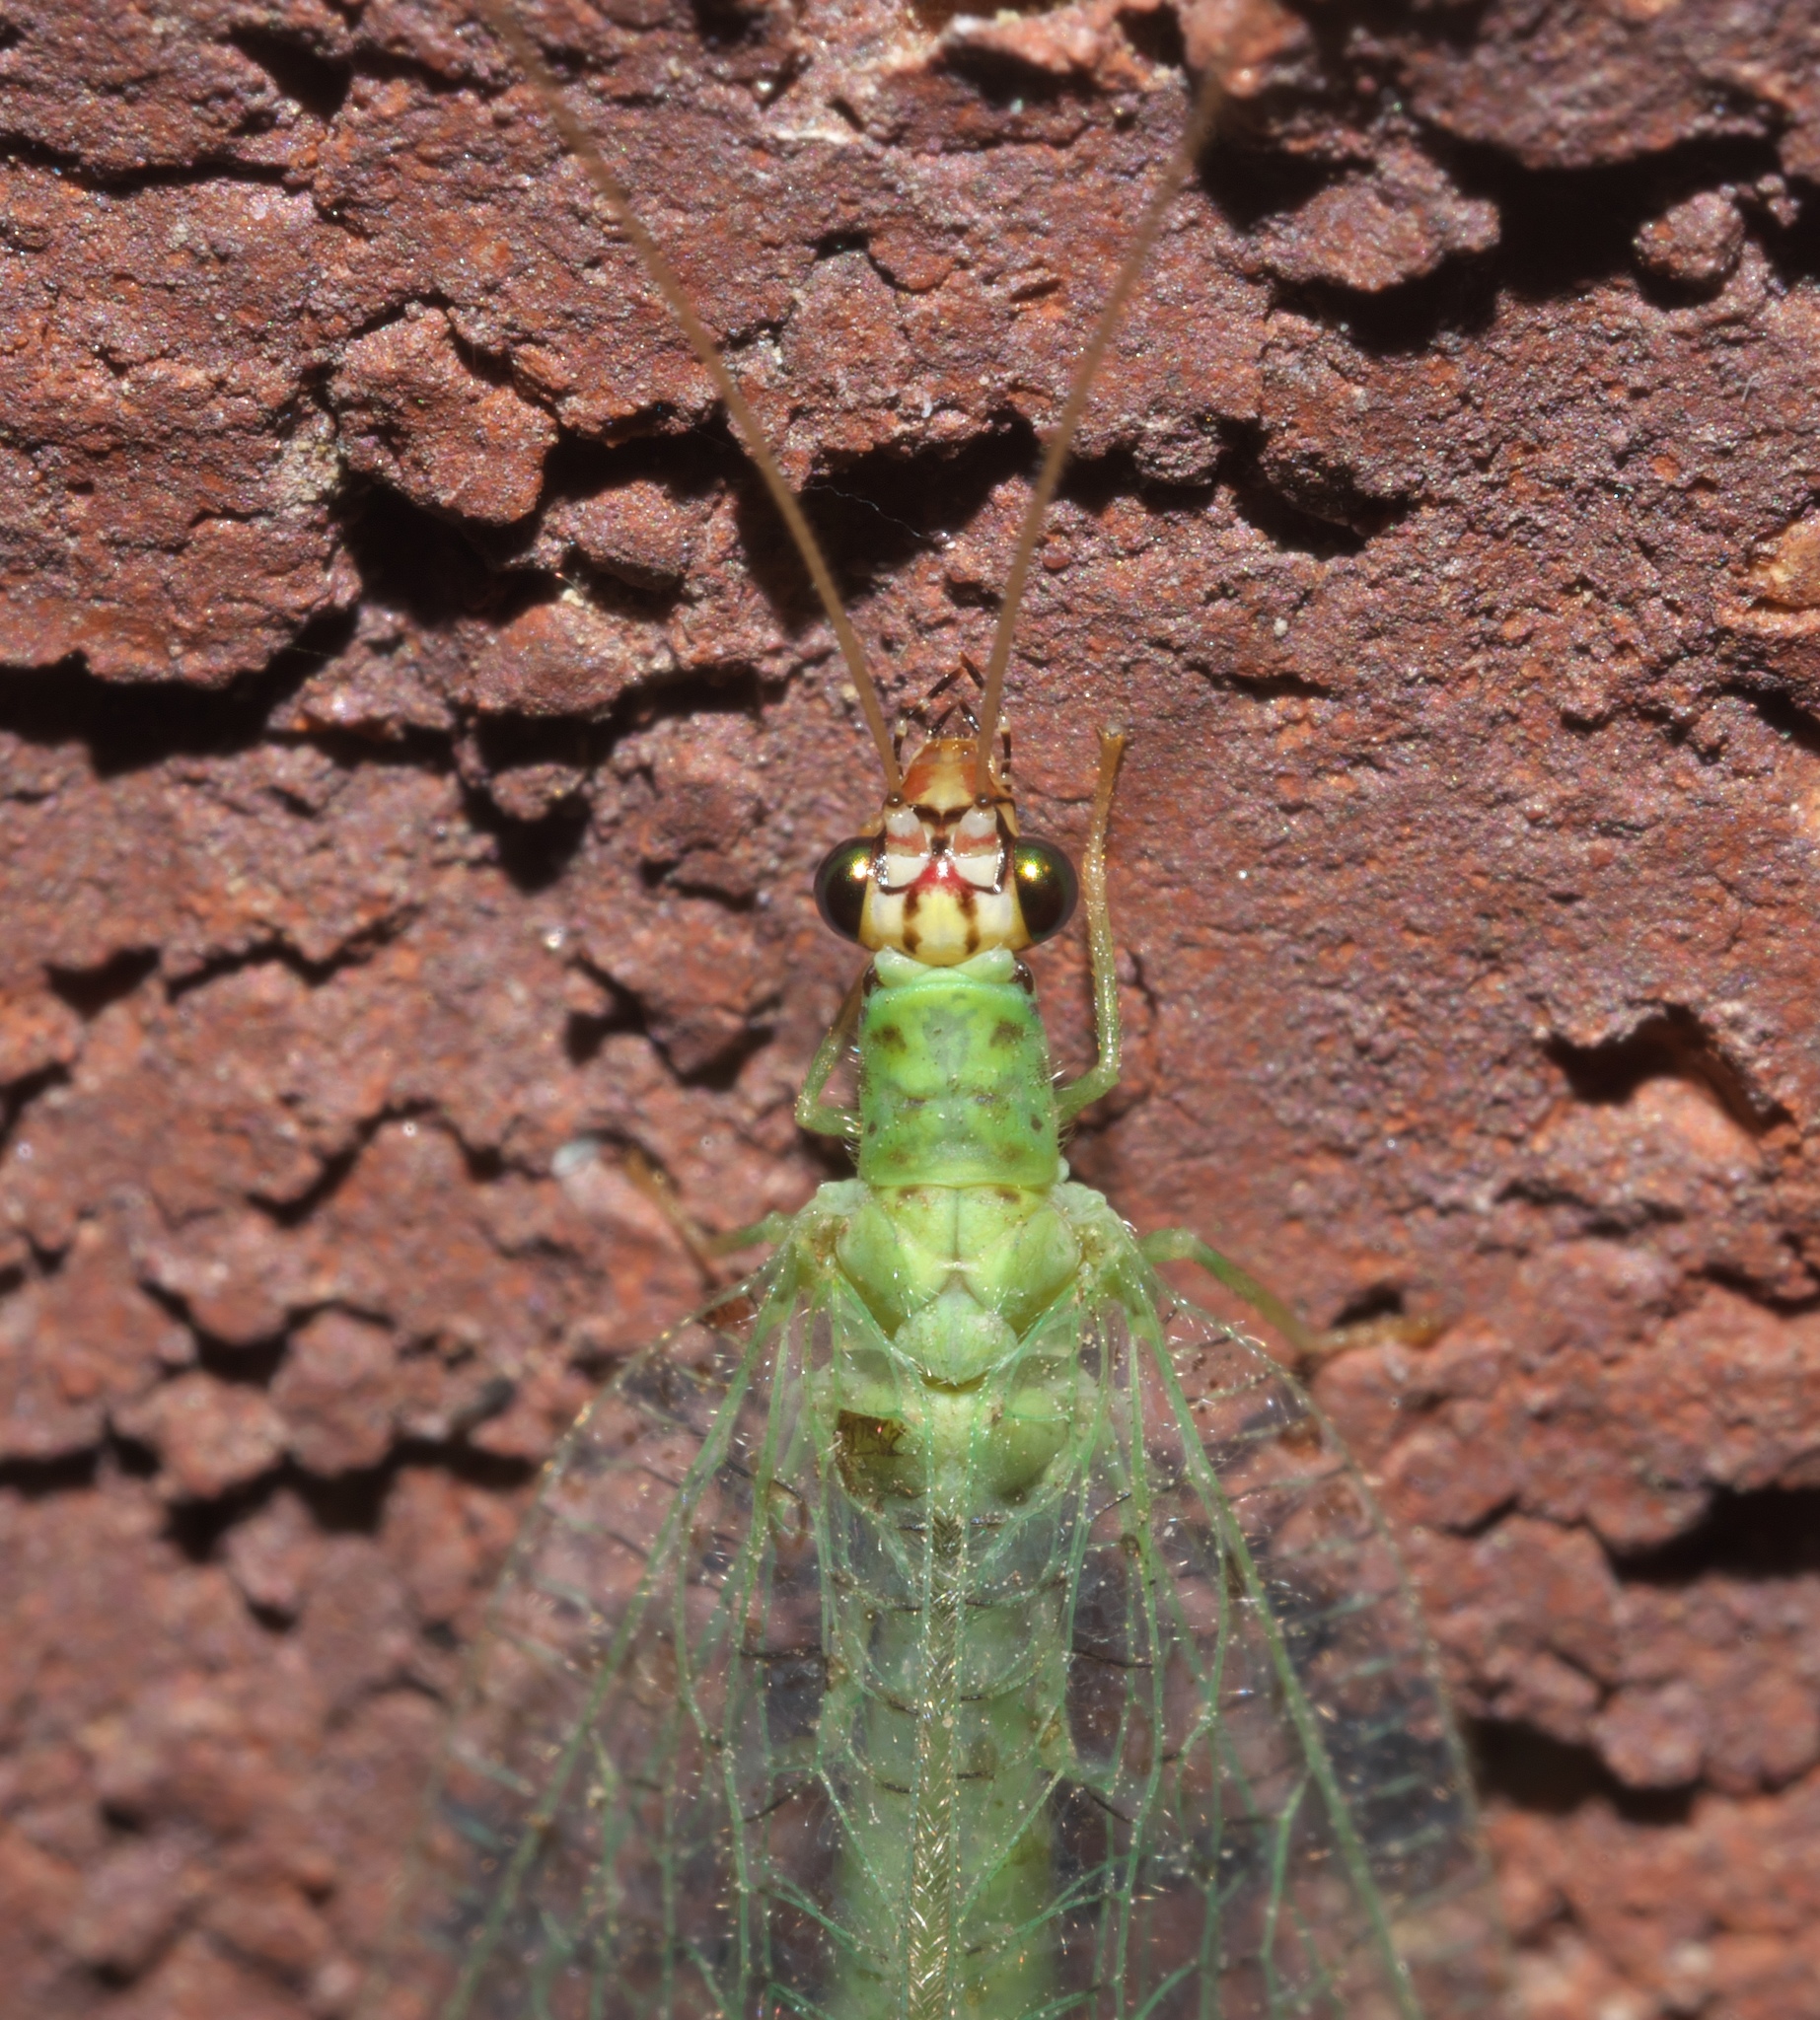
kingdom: Animalia
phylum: Arthropoda
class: Insecta
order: Neuroptera
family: Chrysopidae
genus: Chrysopa
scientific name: Chrysopa oculata
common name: Golden-eyed lacewing
